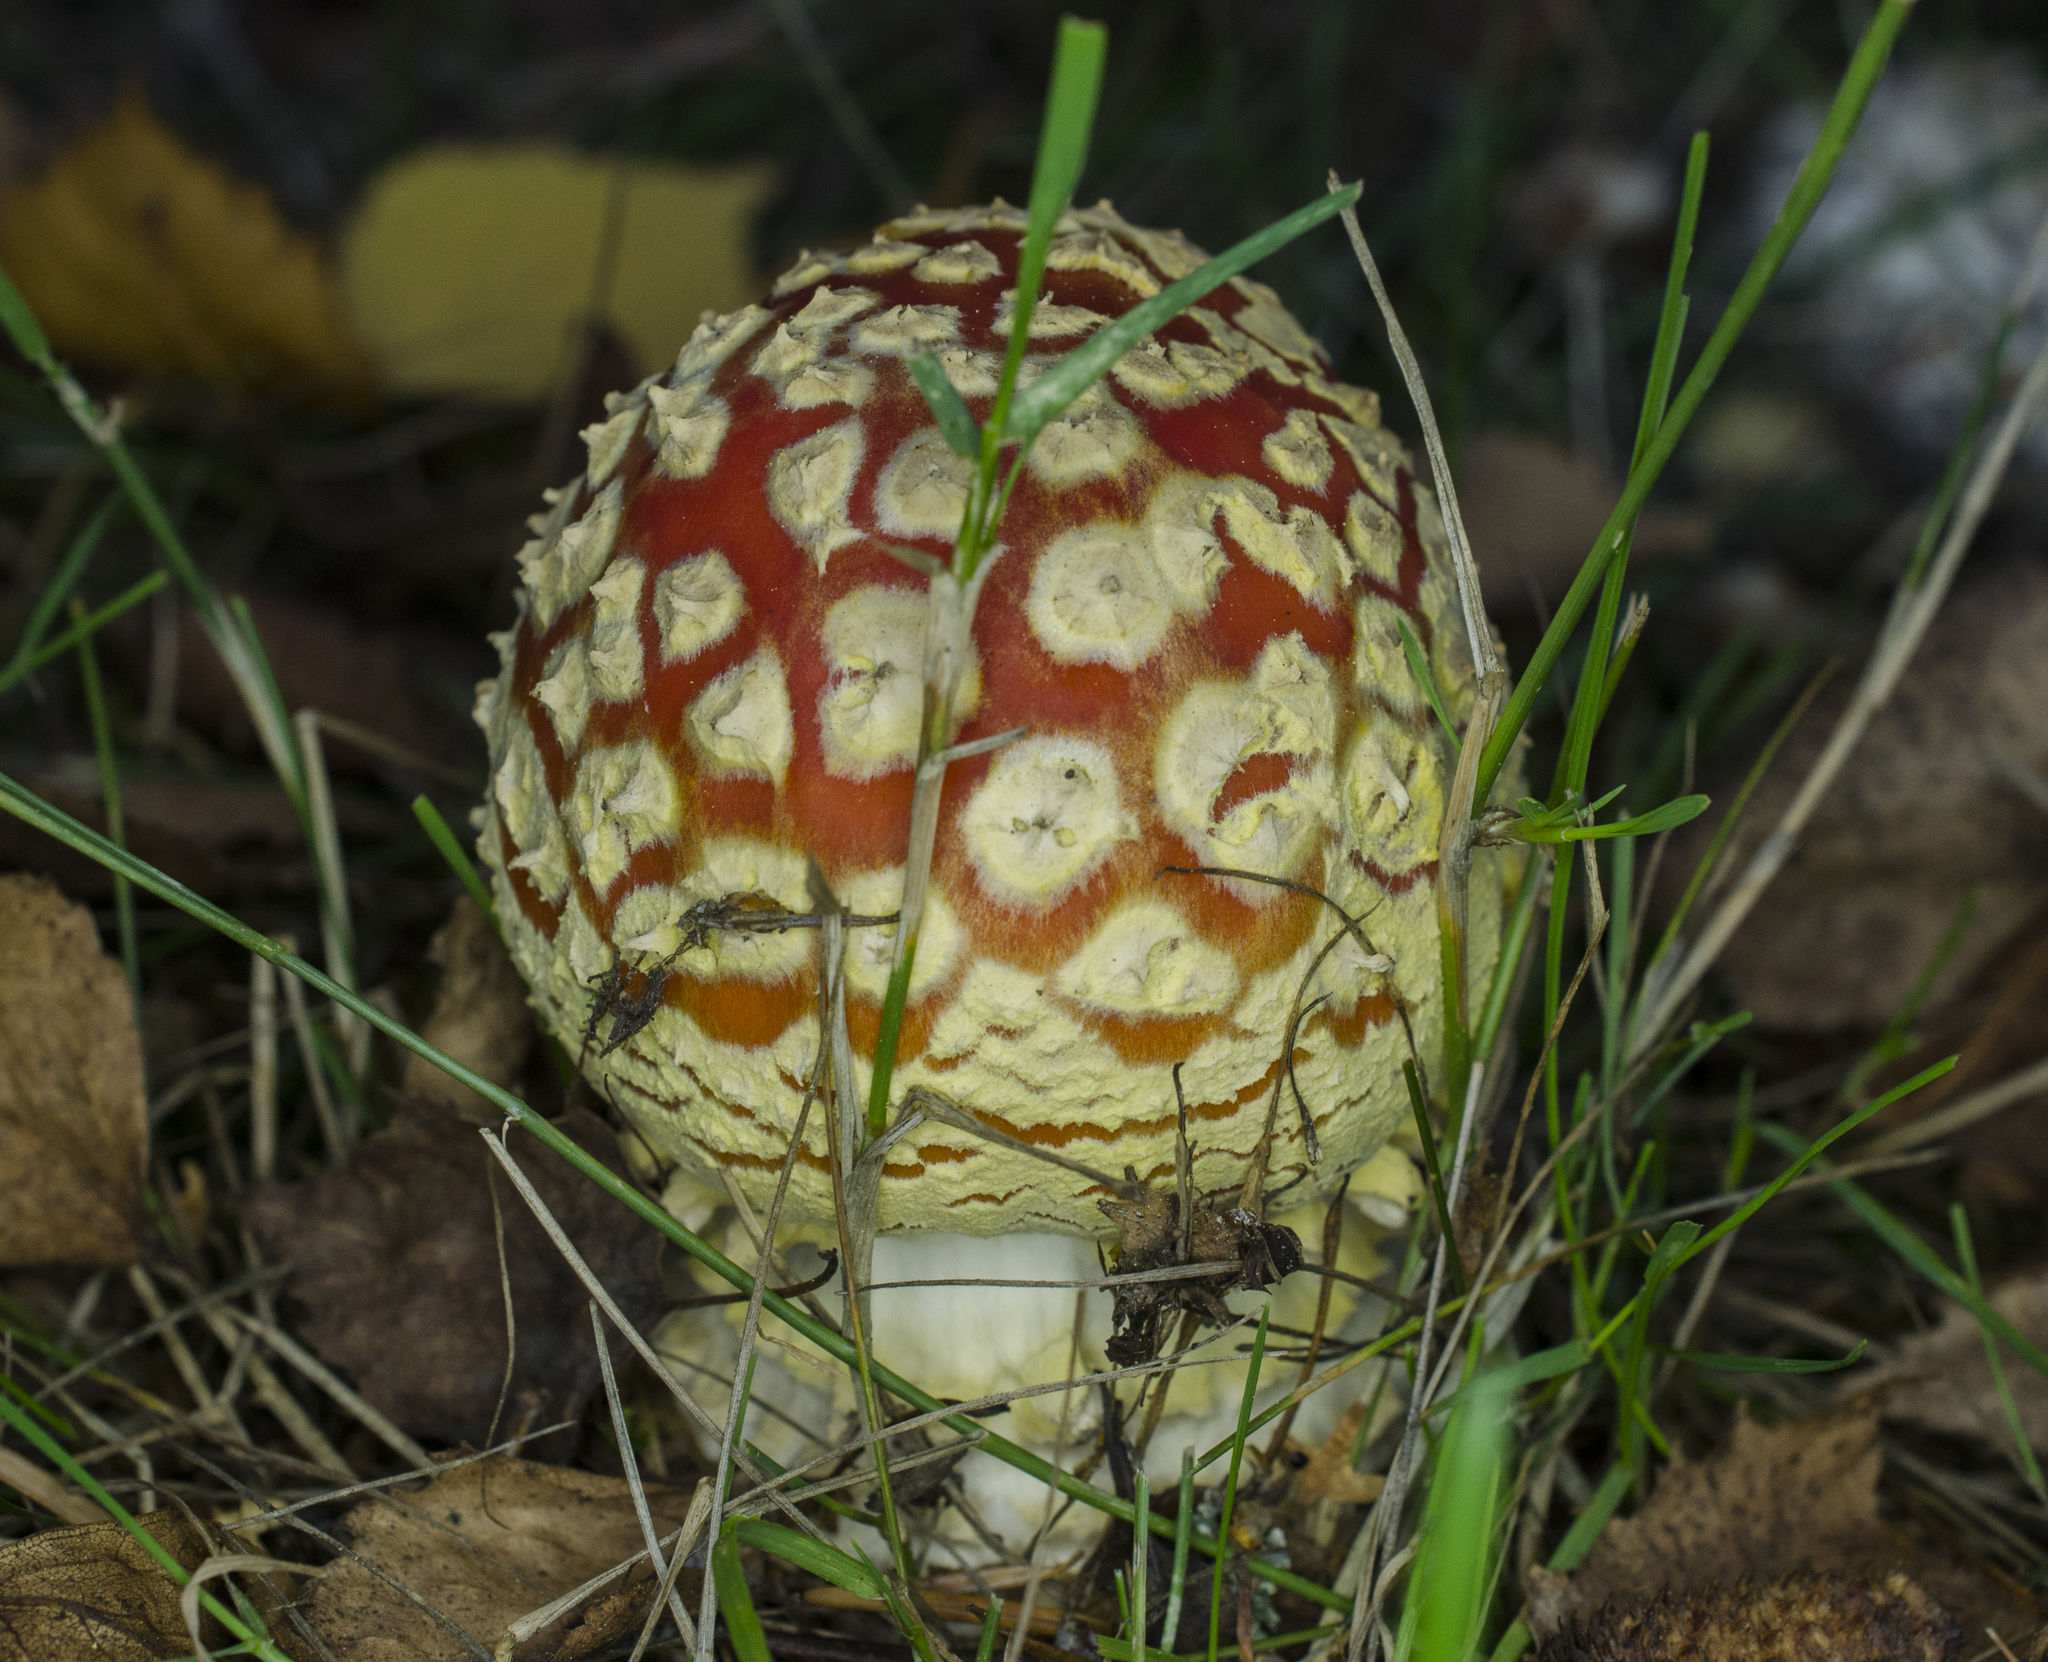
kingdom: Fungi
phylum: Basidiomycota
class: Agaricomycetes
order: Agaricales
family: Amanitaceae
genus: Amanita
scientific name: Amanita muscaria
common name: Fly agaric
